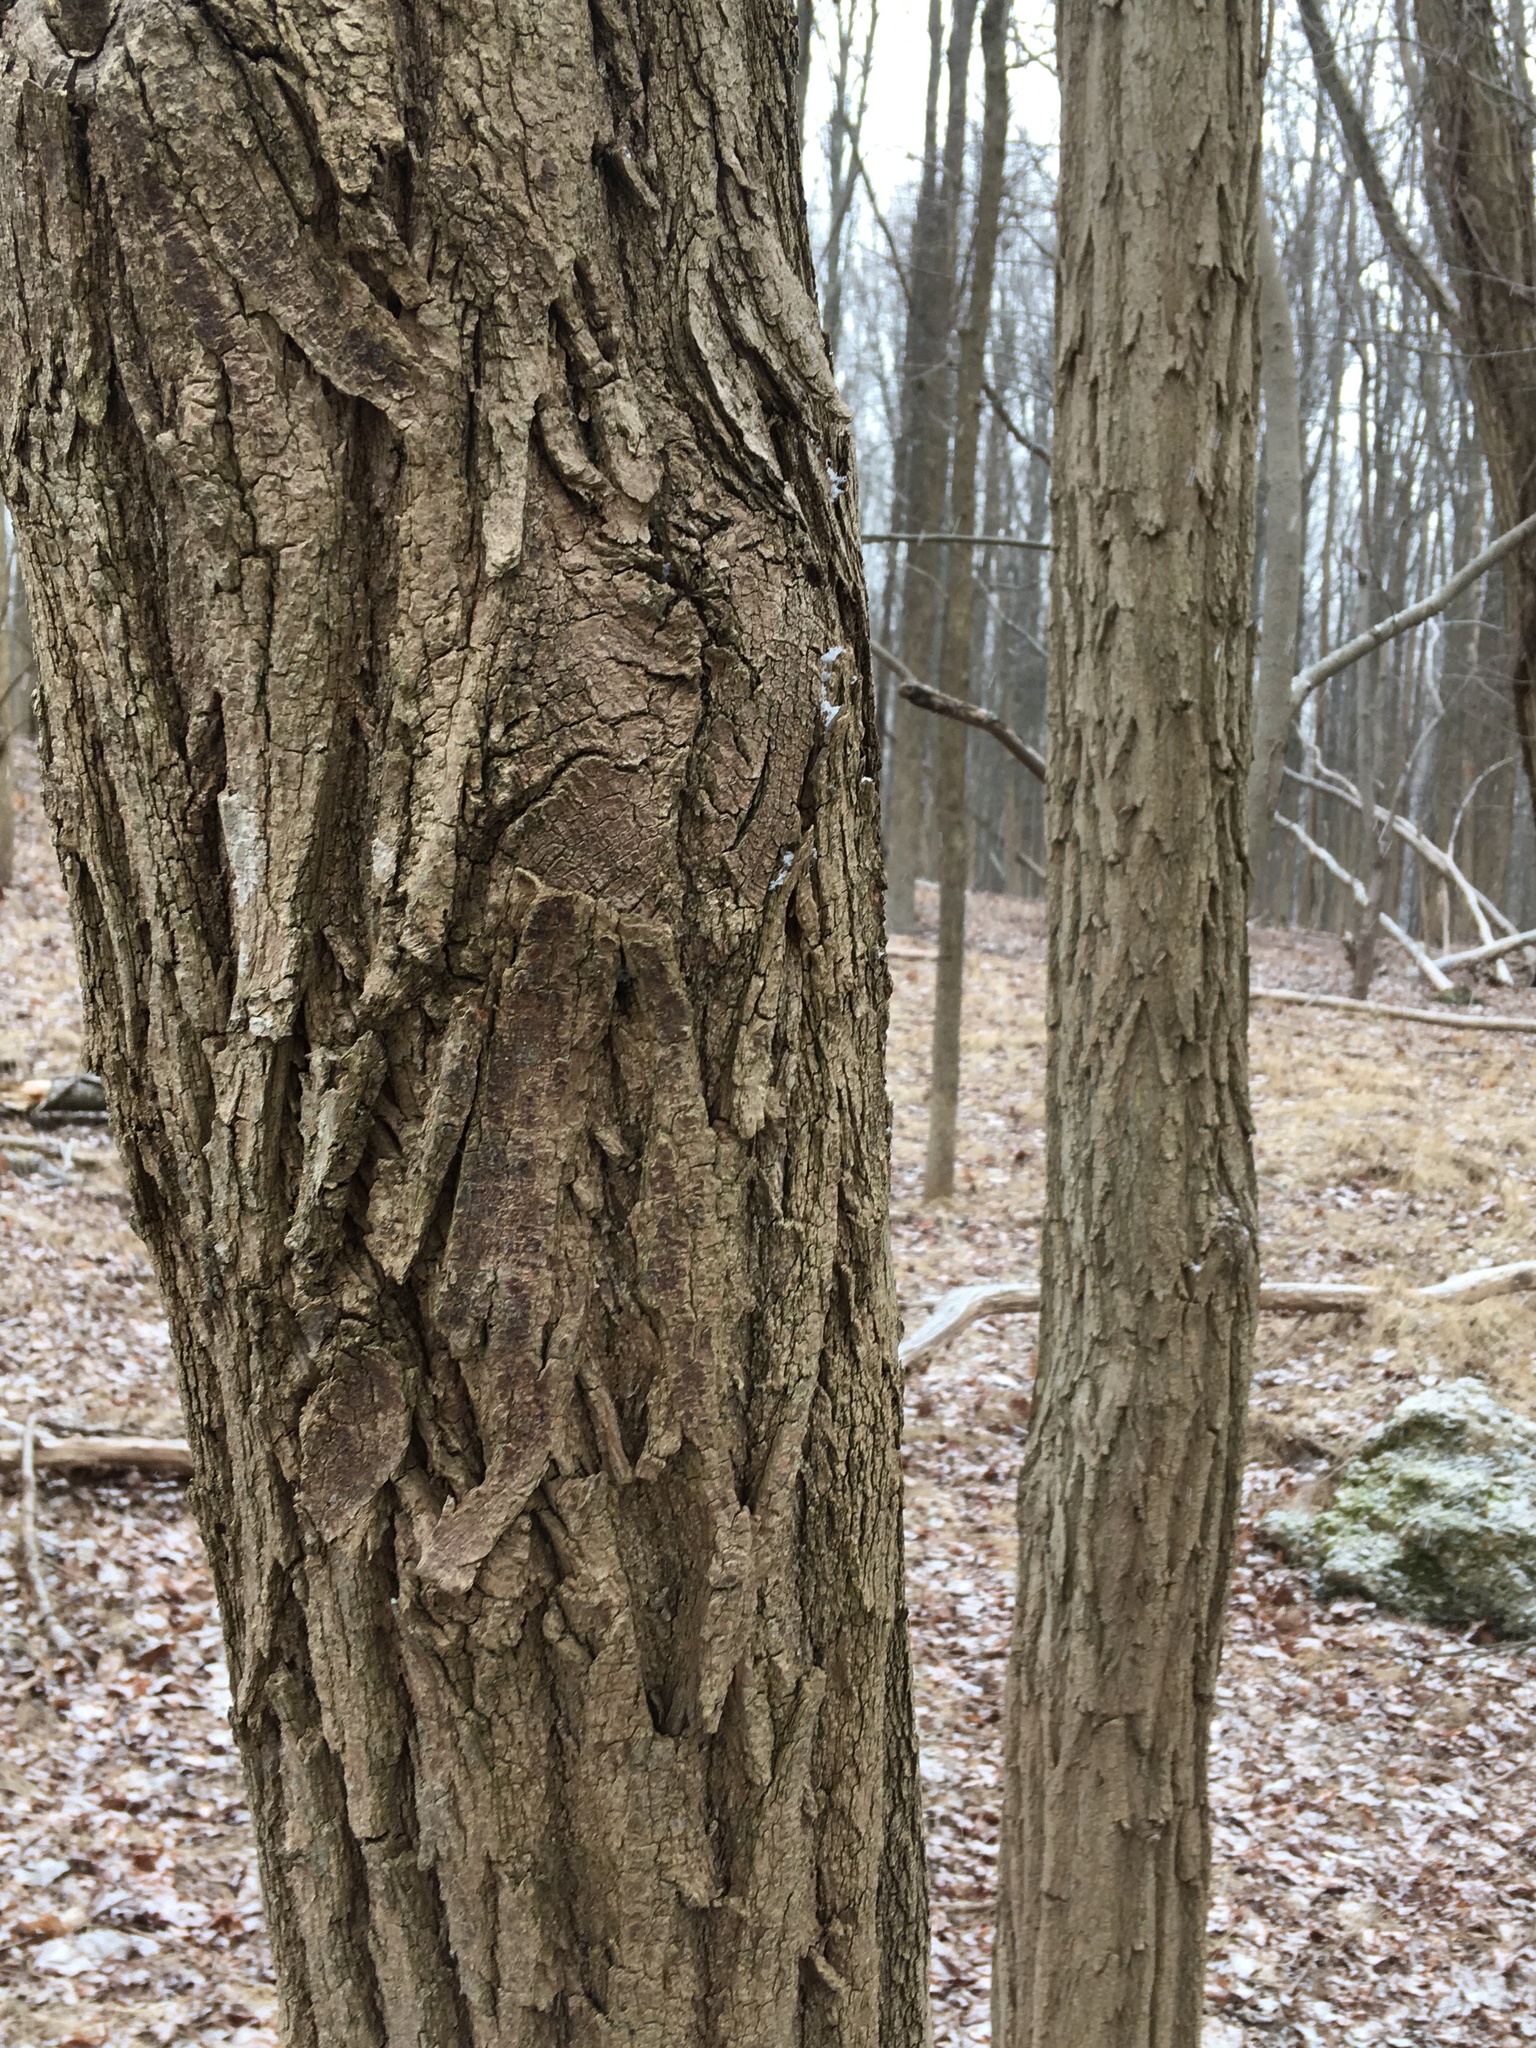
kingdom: Plantae
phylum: Tracheophyta
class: Magnoliopsida
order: Fabales
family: Fabaceae
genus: Robinia
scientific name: Robinia pseudoacacia
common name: Black locust
